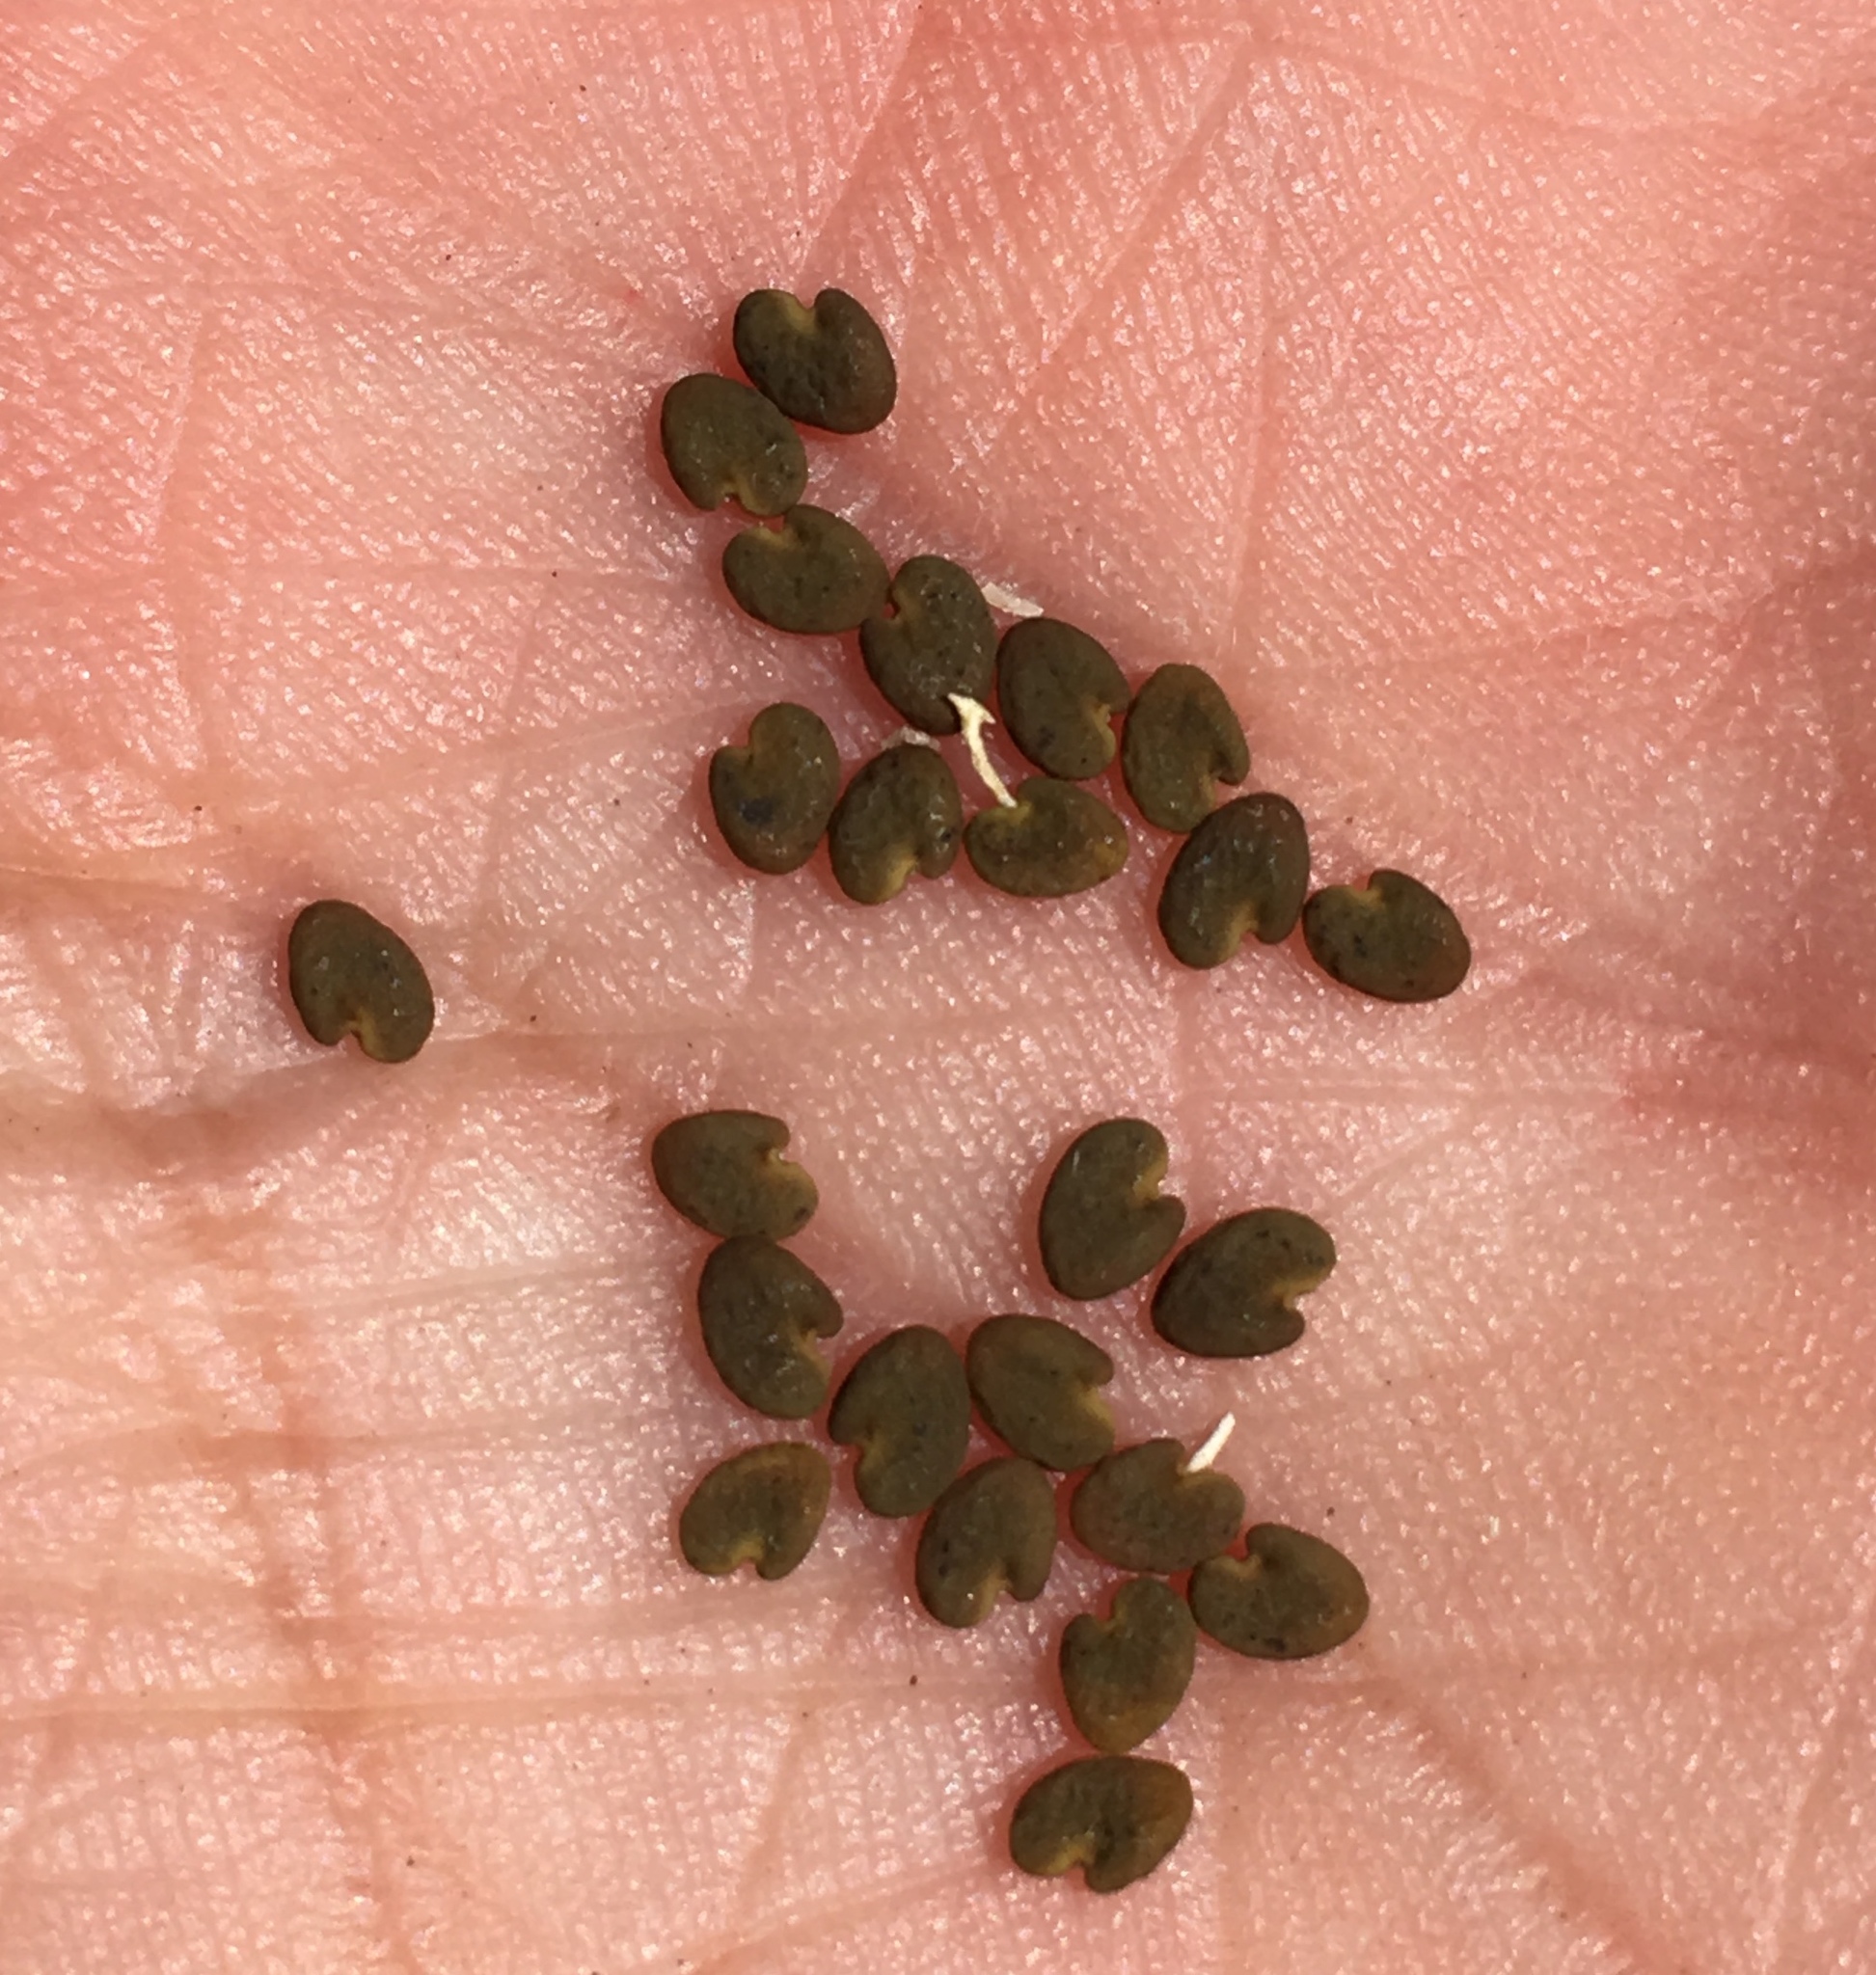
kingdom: Plantae
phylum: Tracheophyta
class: Magnoliopsida
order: Fabales
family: Fabaceae
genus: Astragalus
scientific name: Astragalus gilmanii
